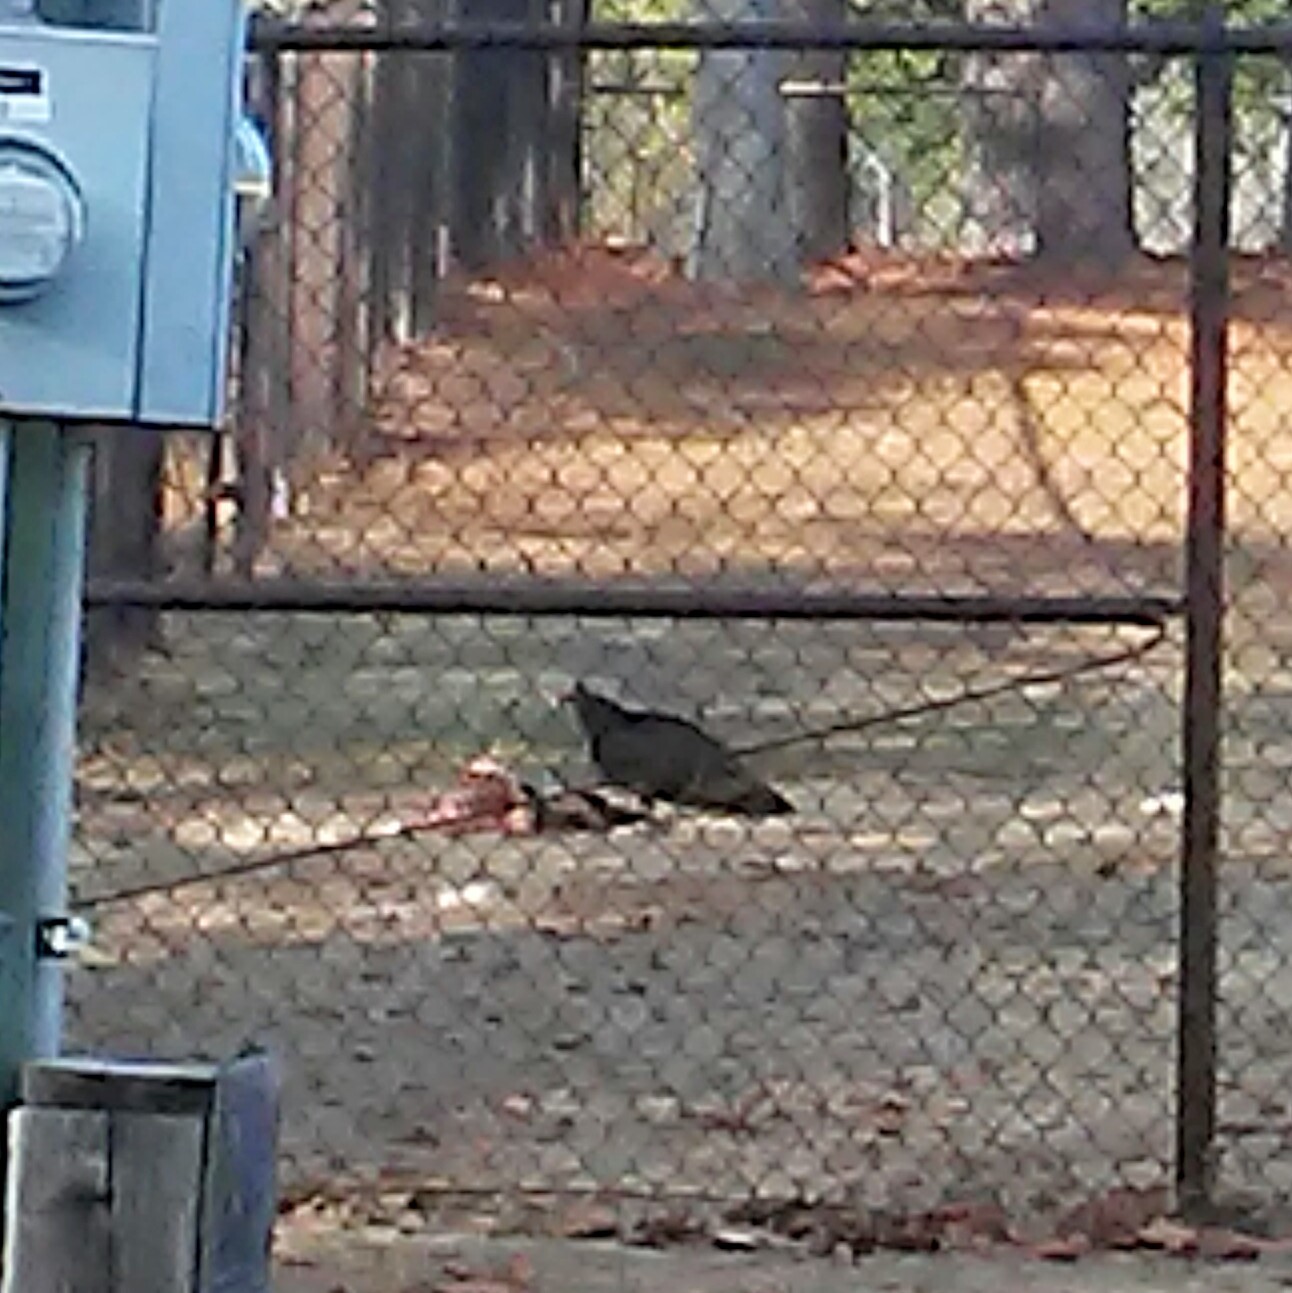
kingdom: Animalia
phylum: Chordata
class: Aves
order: Accipitriformes
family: Cathartidae
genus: Coragyps
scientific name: Coragyps atratus
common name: Black vulture
